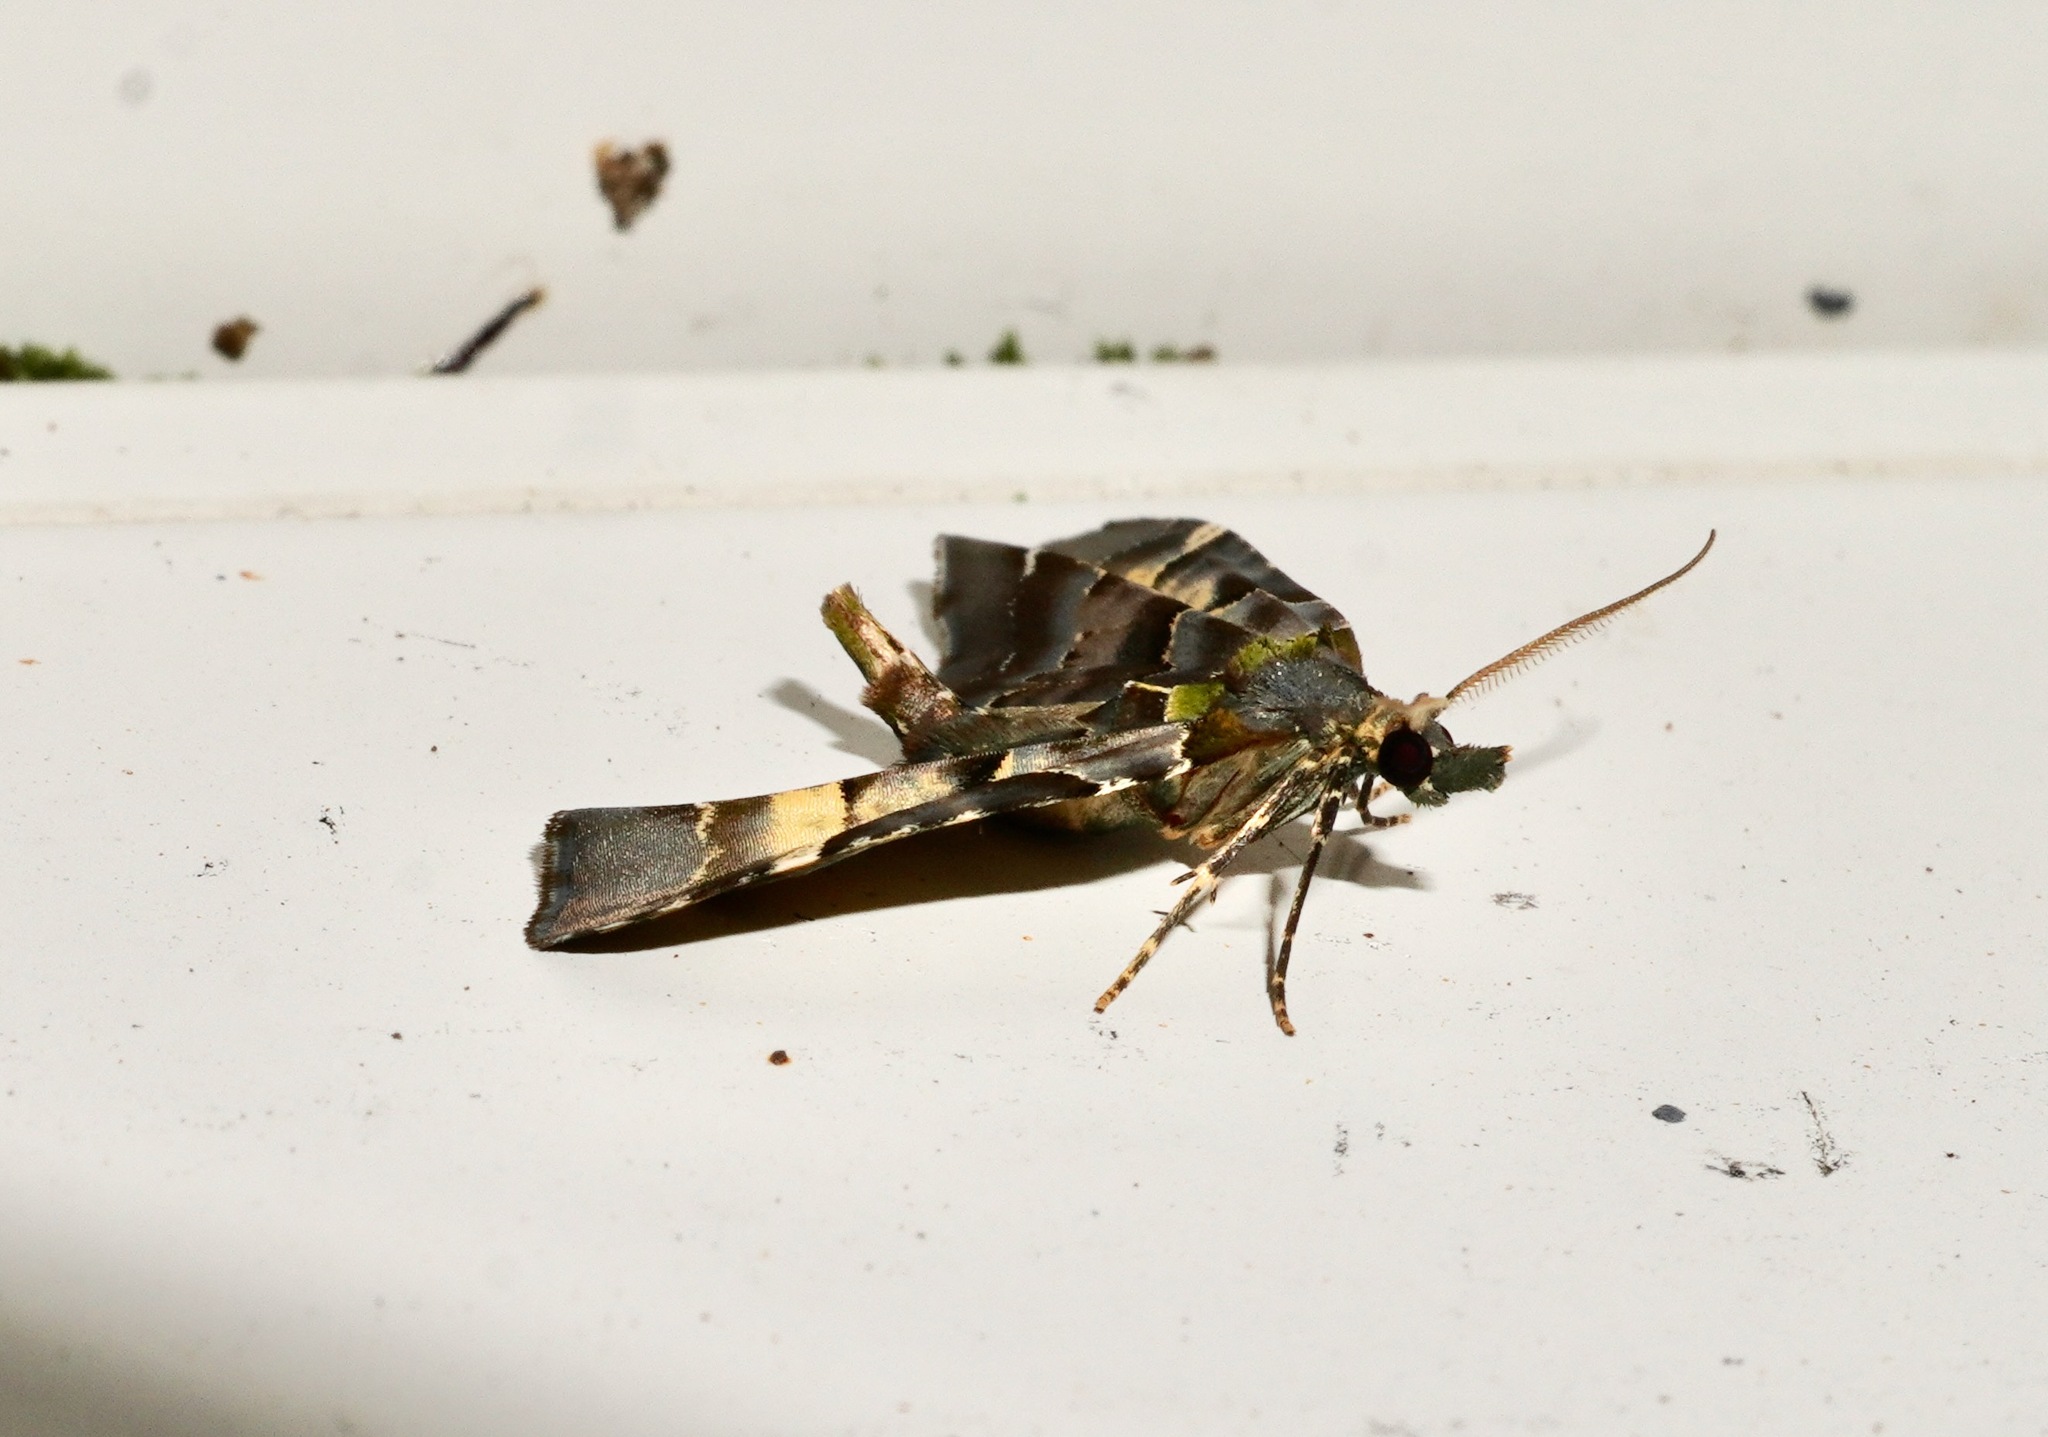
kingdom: Animalia
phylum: Arthropoda
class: Insecta
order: Lepidoptera
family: Geometridae
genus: Elvia
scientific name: Elvia glaucata
